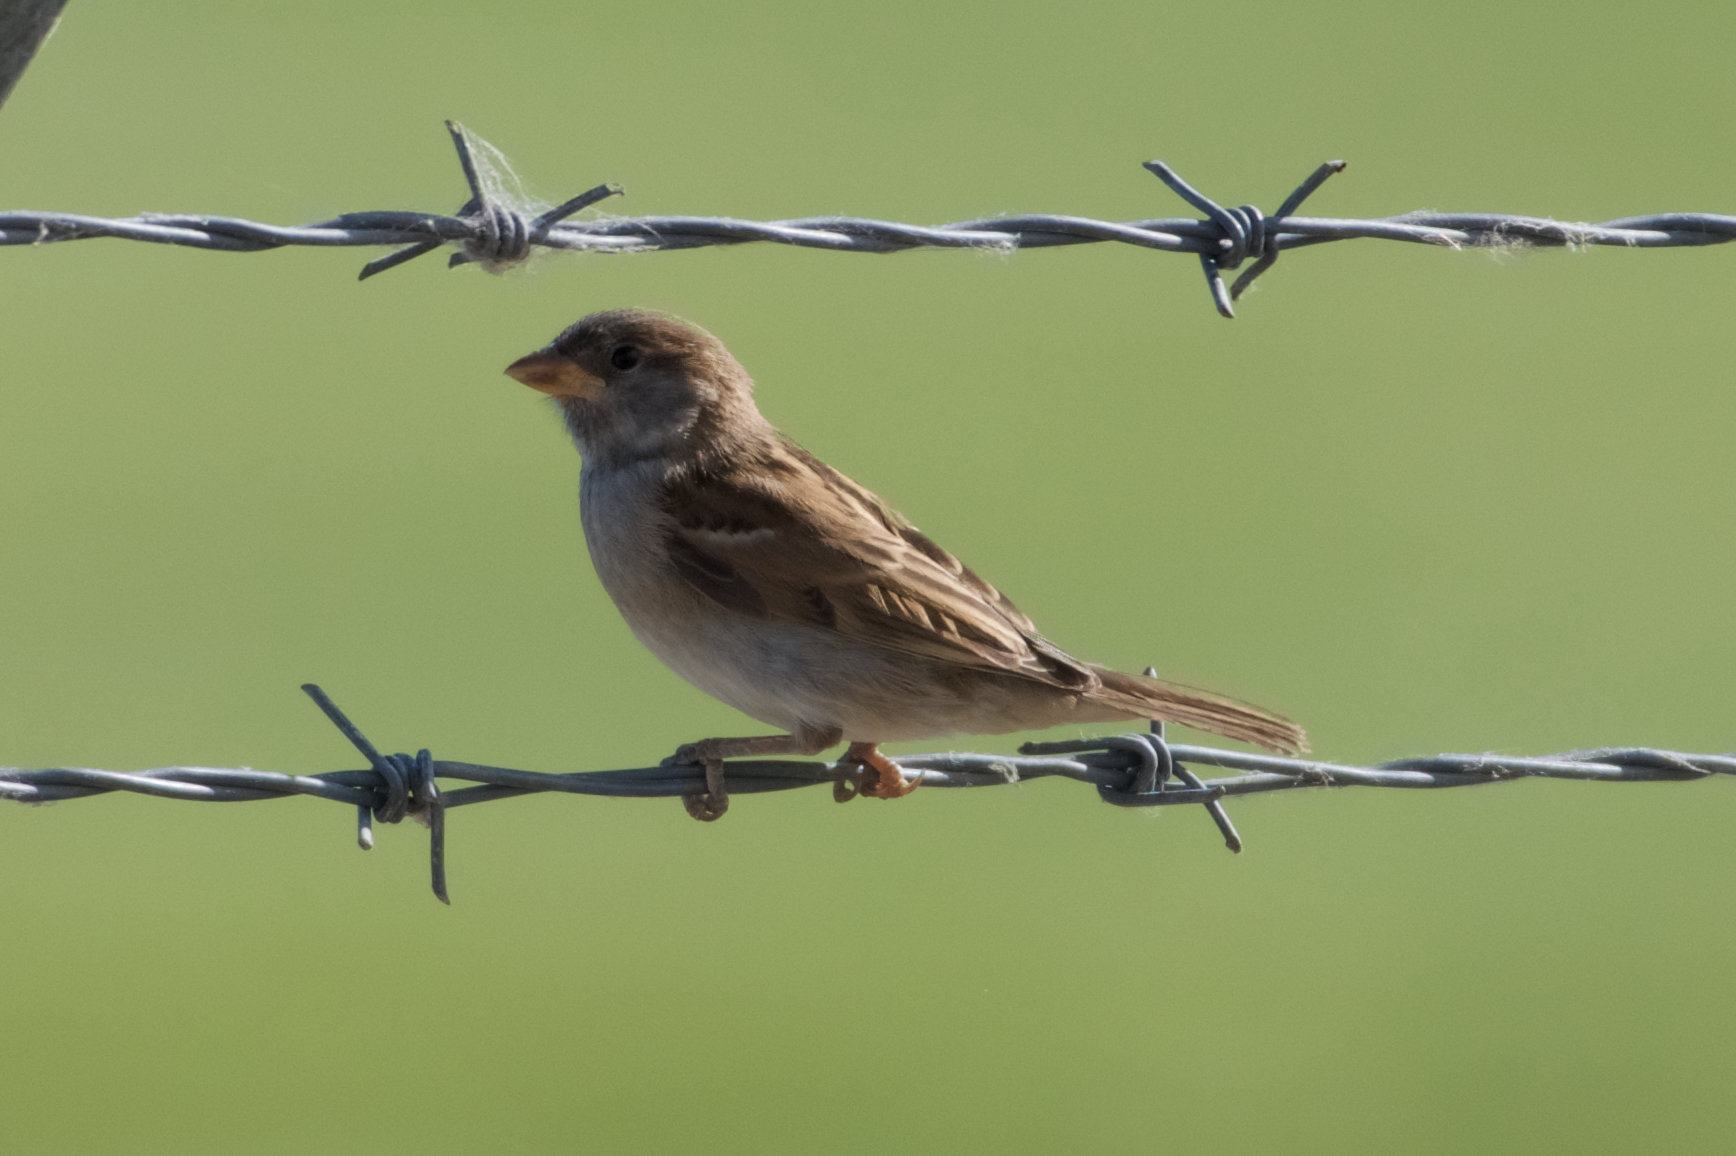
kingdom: Animalia
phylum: Chordata
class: Aves
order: Passeriformes
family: Passeridae
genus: Passer
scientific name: Passer domesticus
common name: House sparrow
